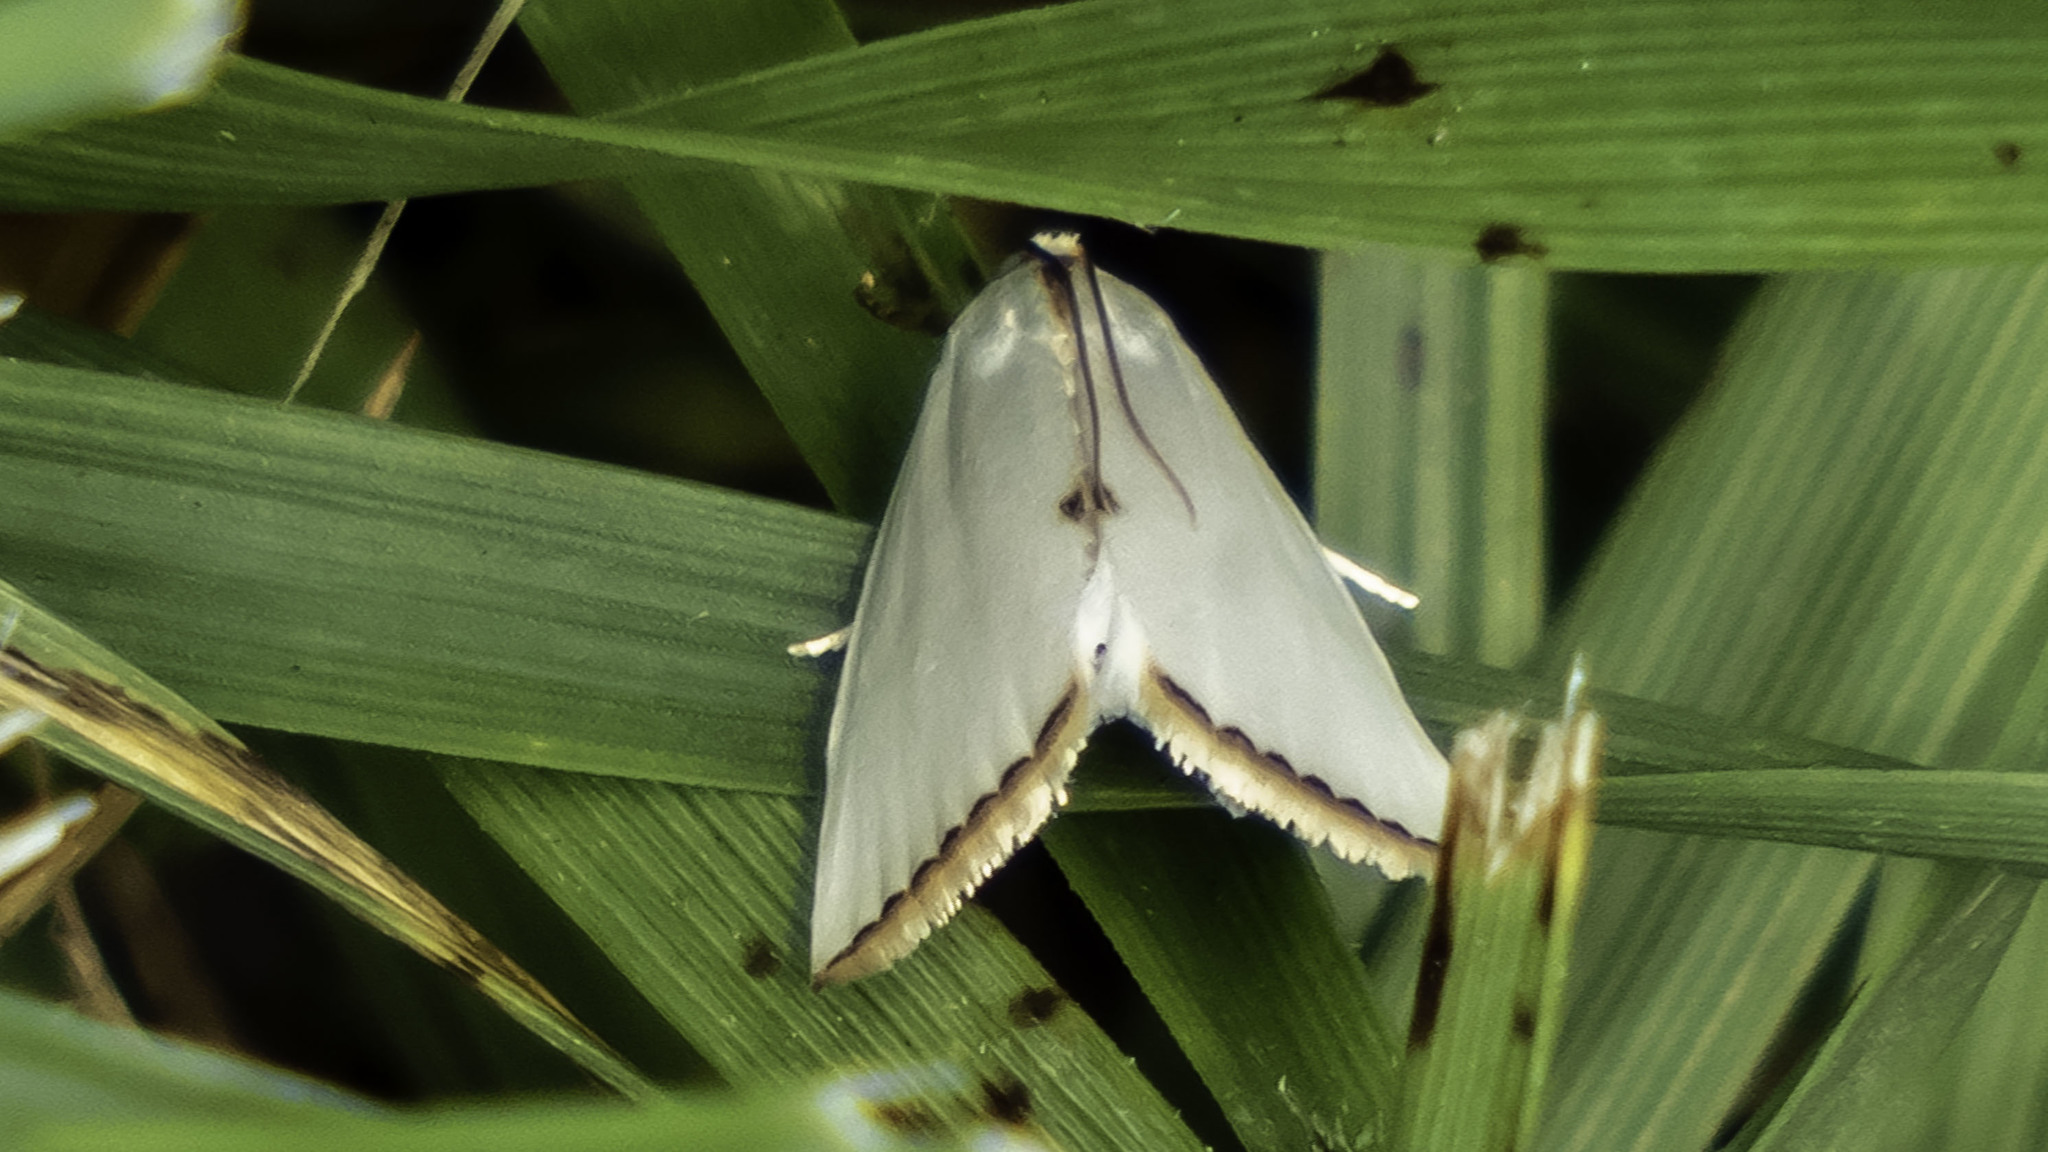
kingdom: Animalia
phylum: Arthropoda
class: Insecta
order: Lepidoptera
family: Crambidae
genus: Argyria
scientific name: Argyria nivalis
